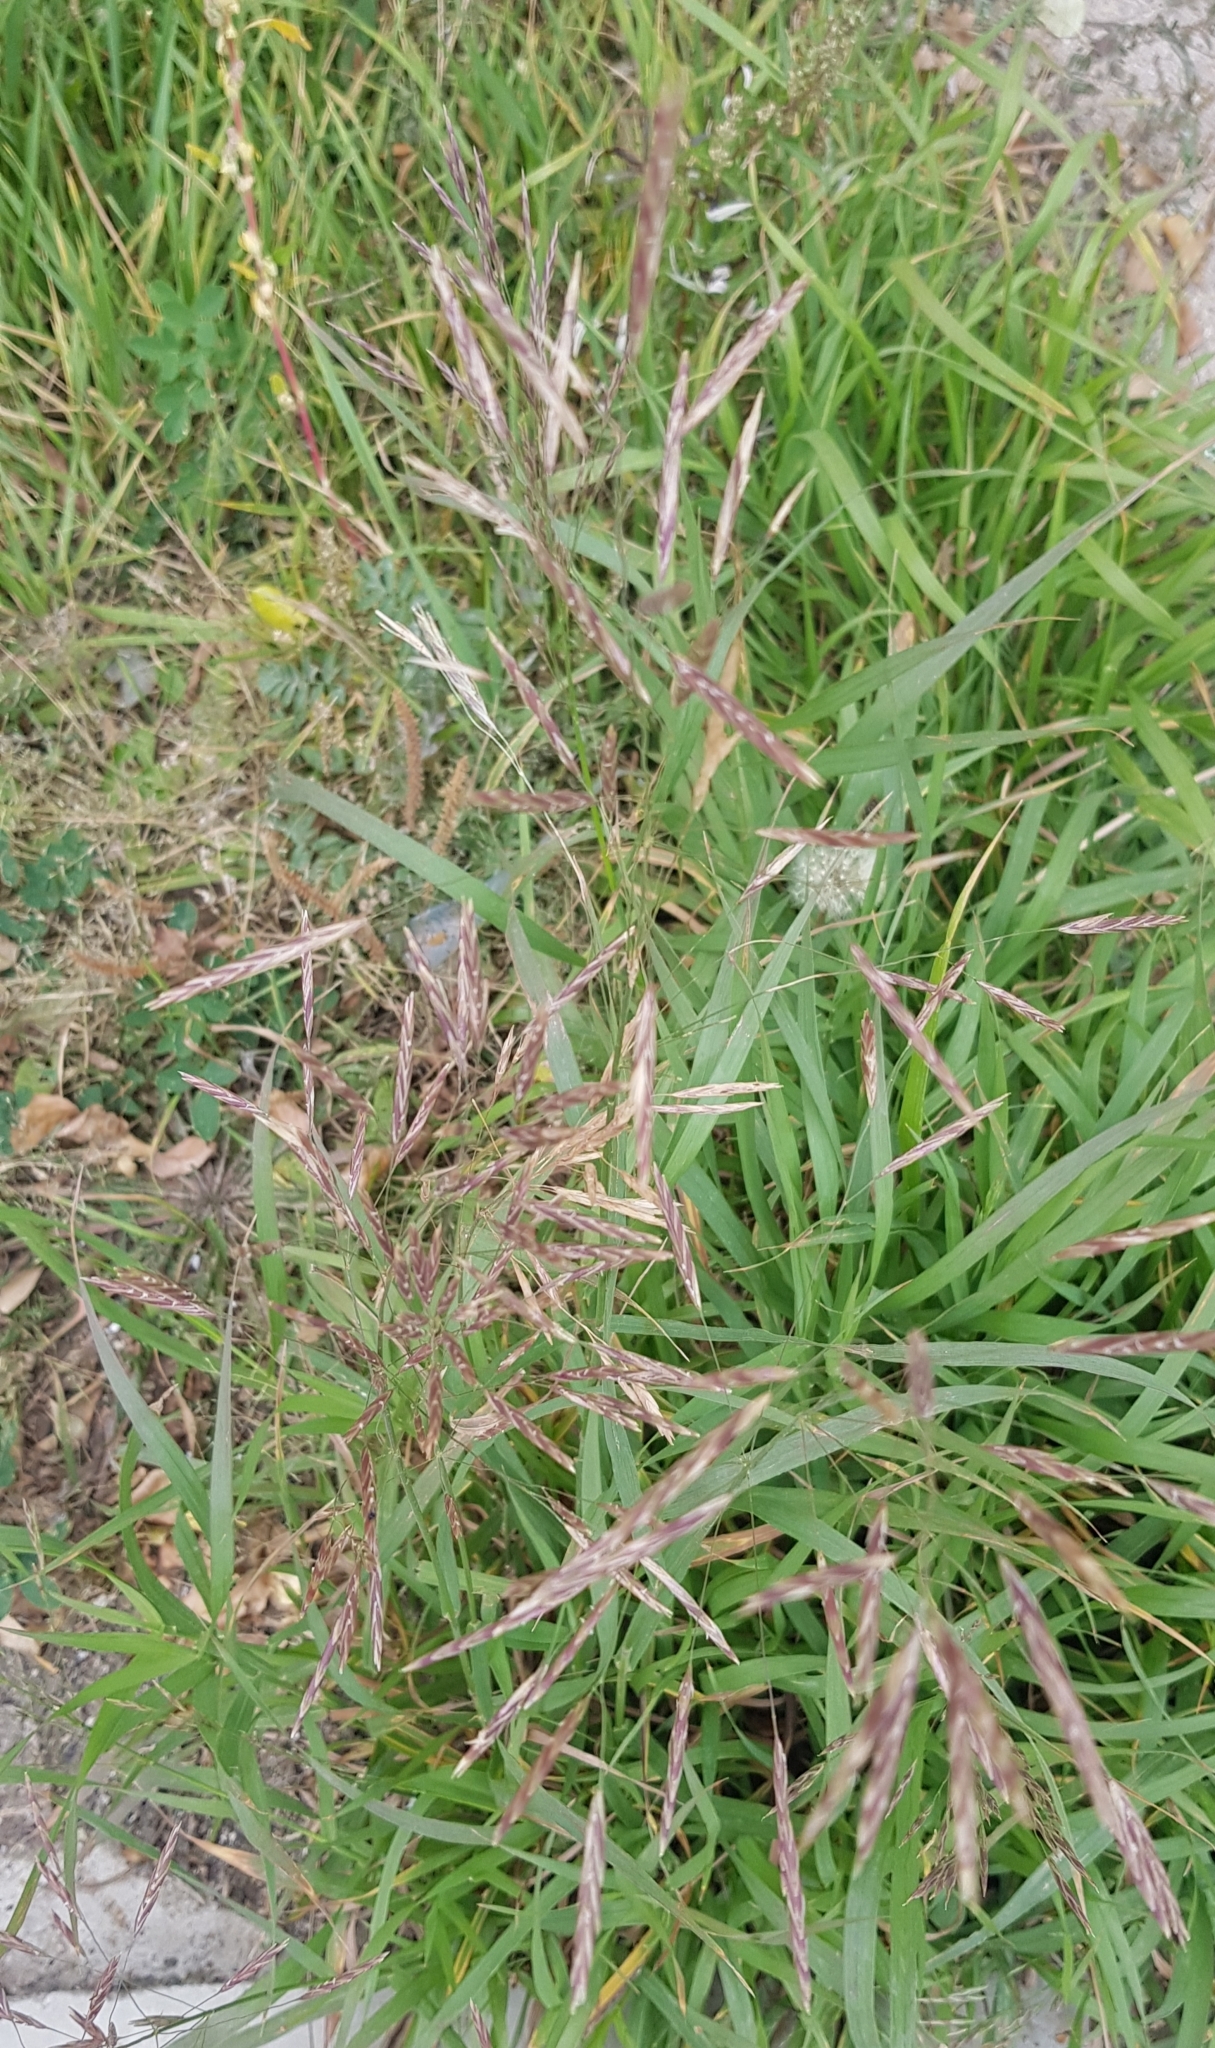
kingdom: Plantae
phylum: Tracheophyta
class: Liliopsida
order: Poales
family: Poaceae
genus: Bromus
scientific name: Bromus inermis
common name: Smooth brome
